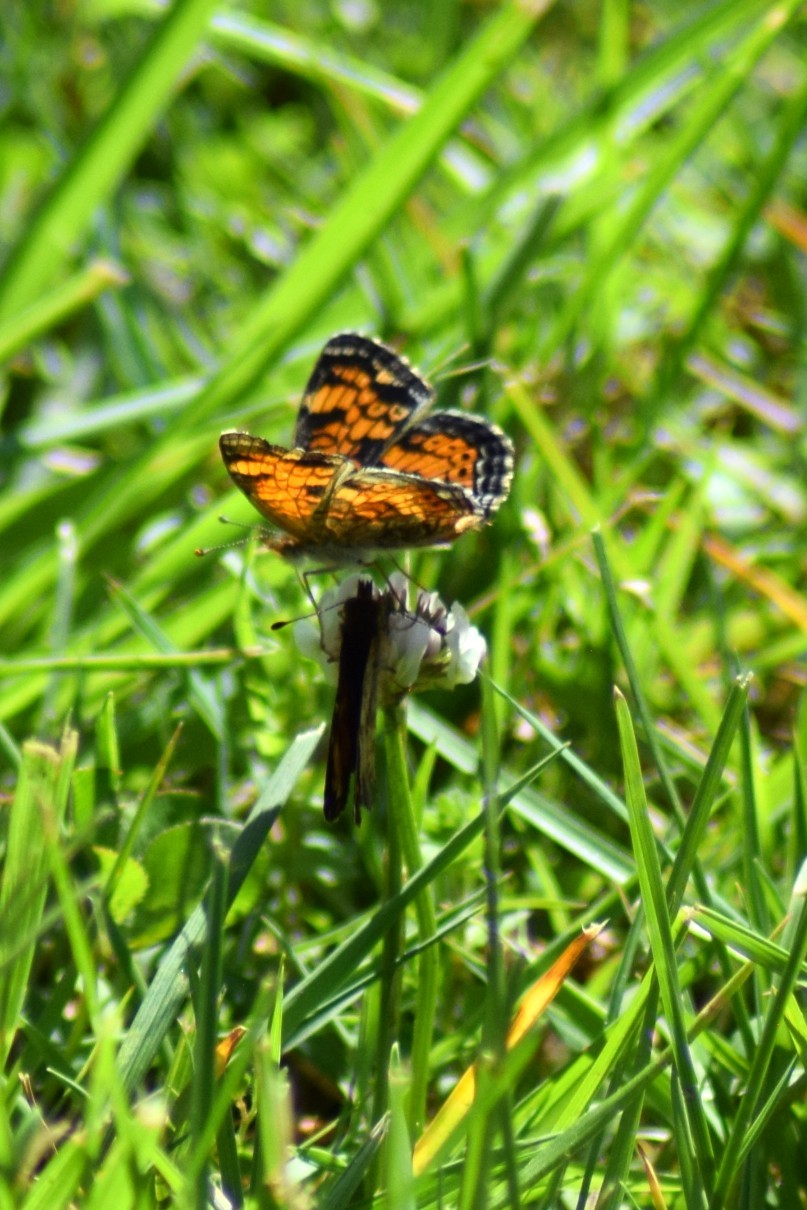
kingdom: Animalia
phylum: Arthropoda
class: Insecta
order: Lepidoptera
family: Nymphalidae
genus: Phyciodes
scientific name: Phyciodes tharos
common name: Pearl crescent
